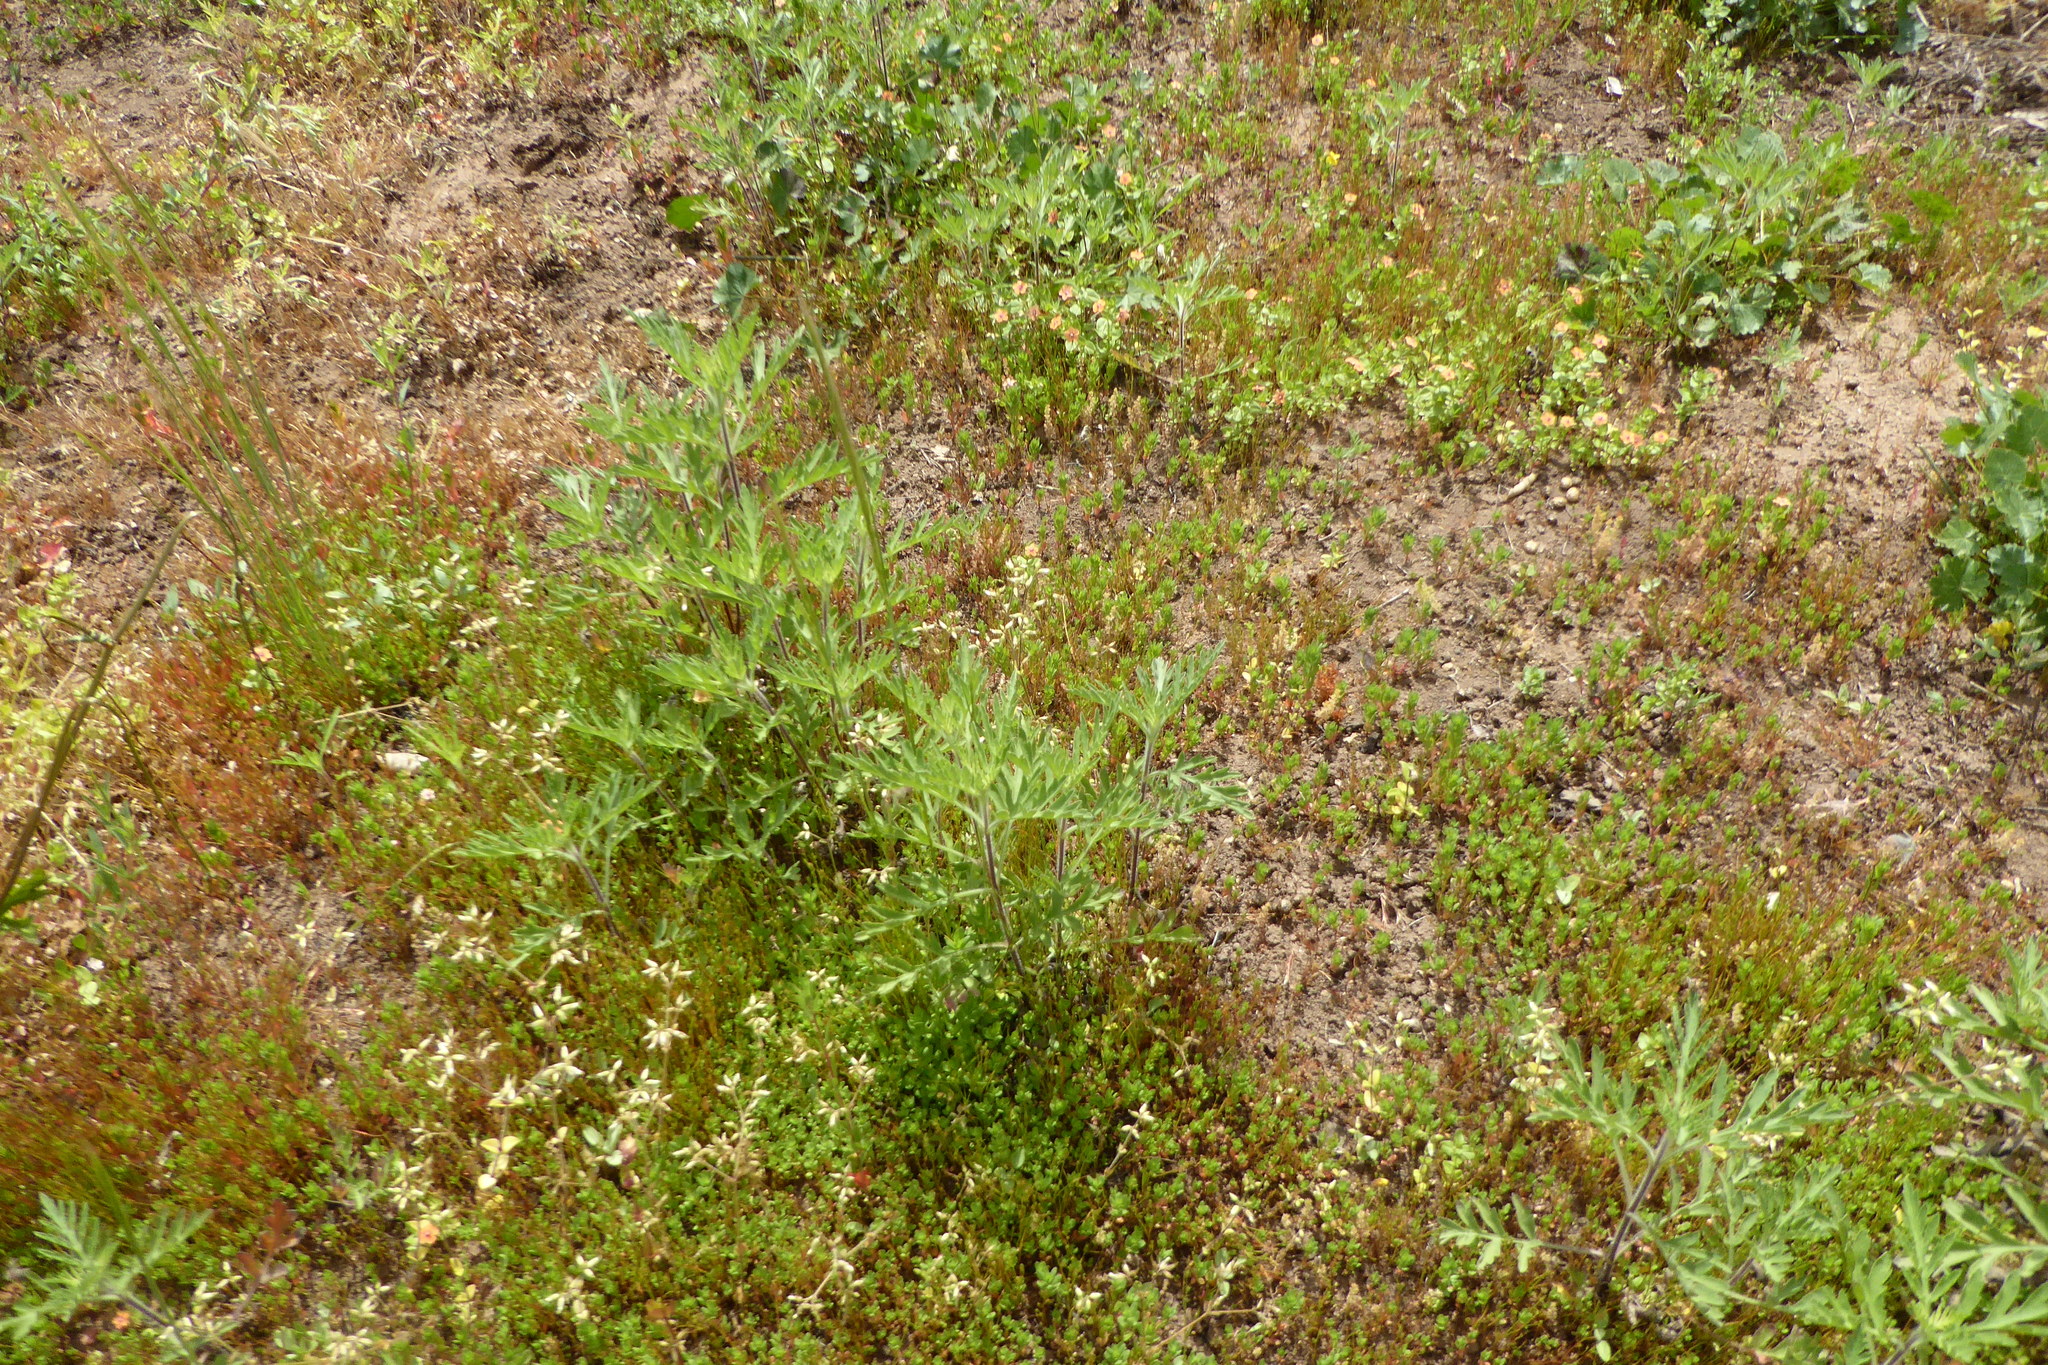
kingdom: Plantae
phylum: Tracheophyta
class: Magnoliopsida
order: Asterales
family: Asteraceae
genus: Ambrosia
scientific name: Ambrosia psilostachya
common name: Perennial ragweed
